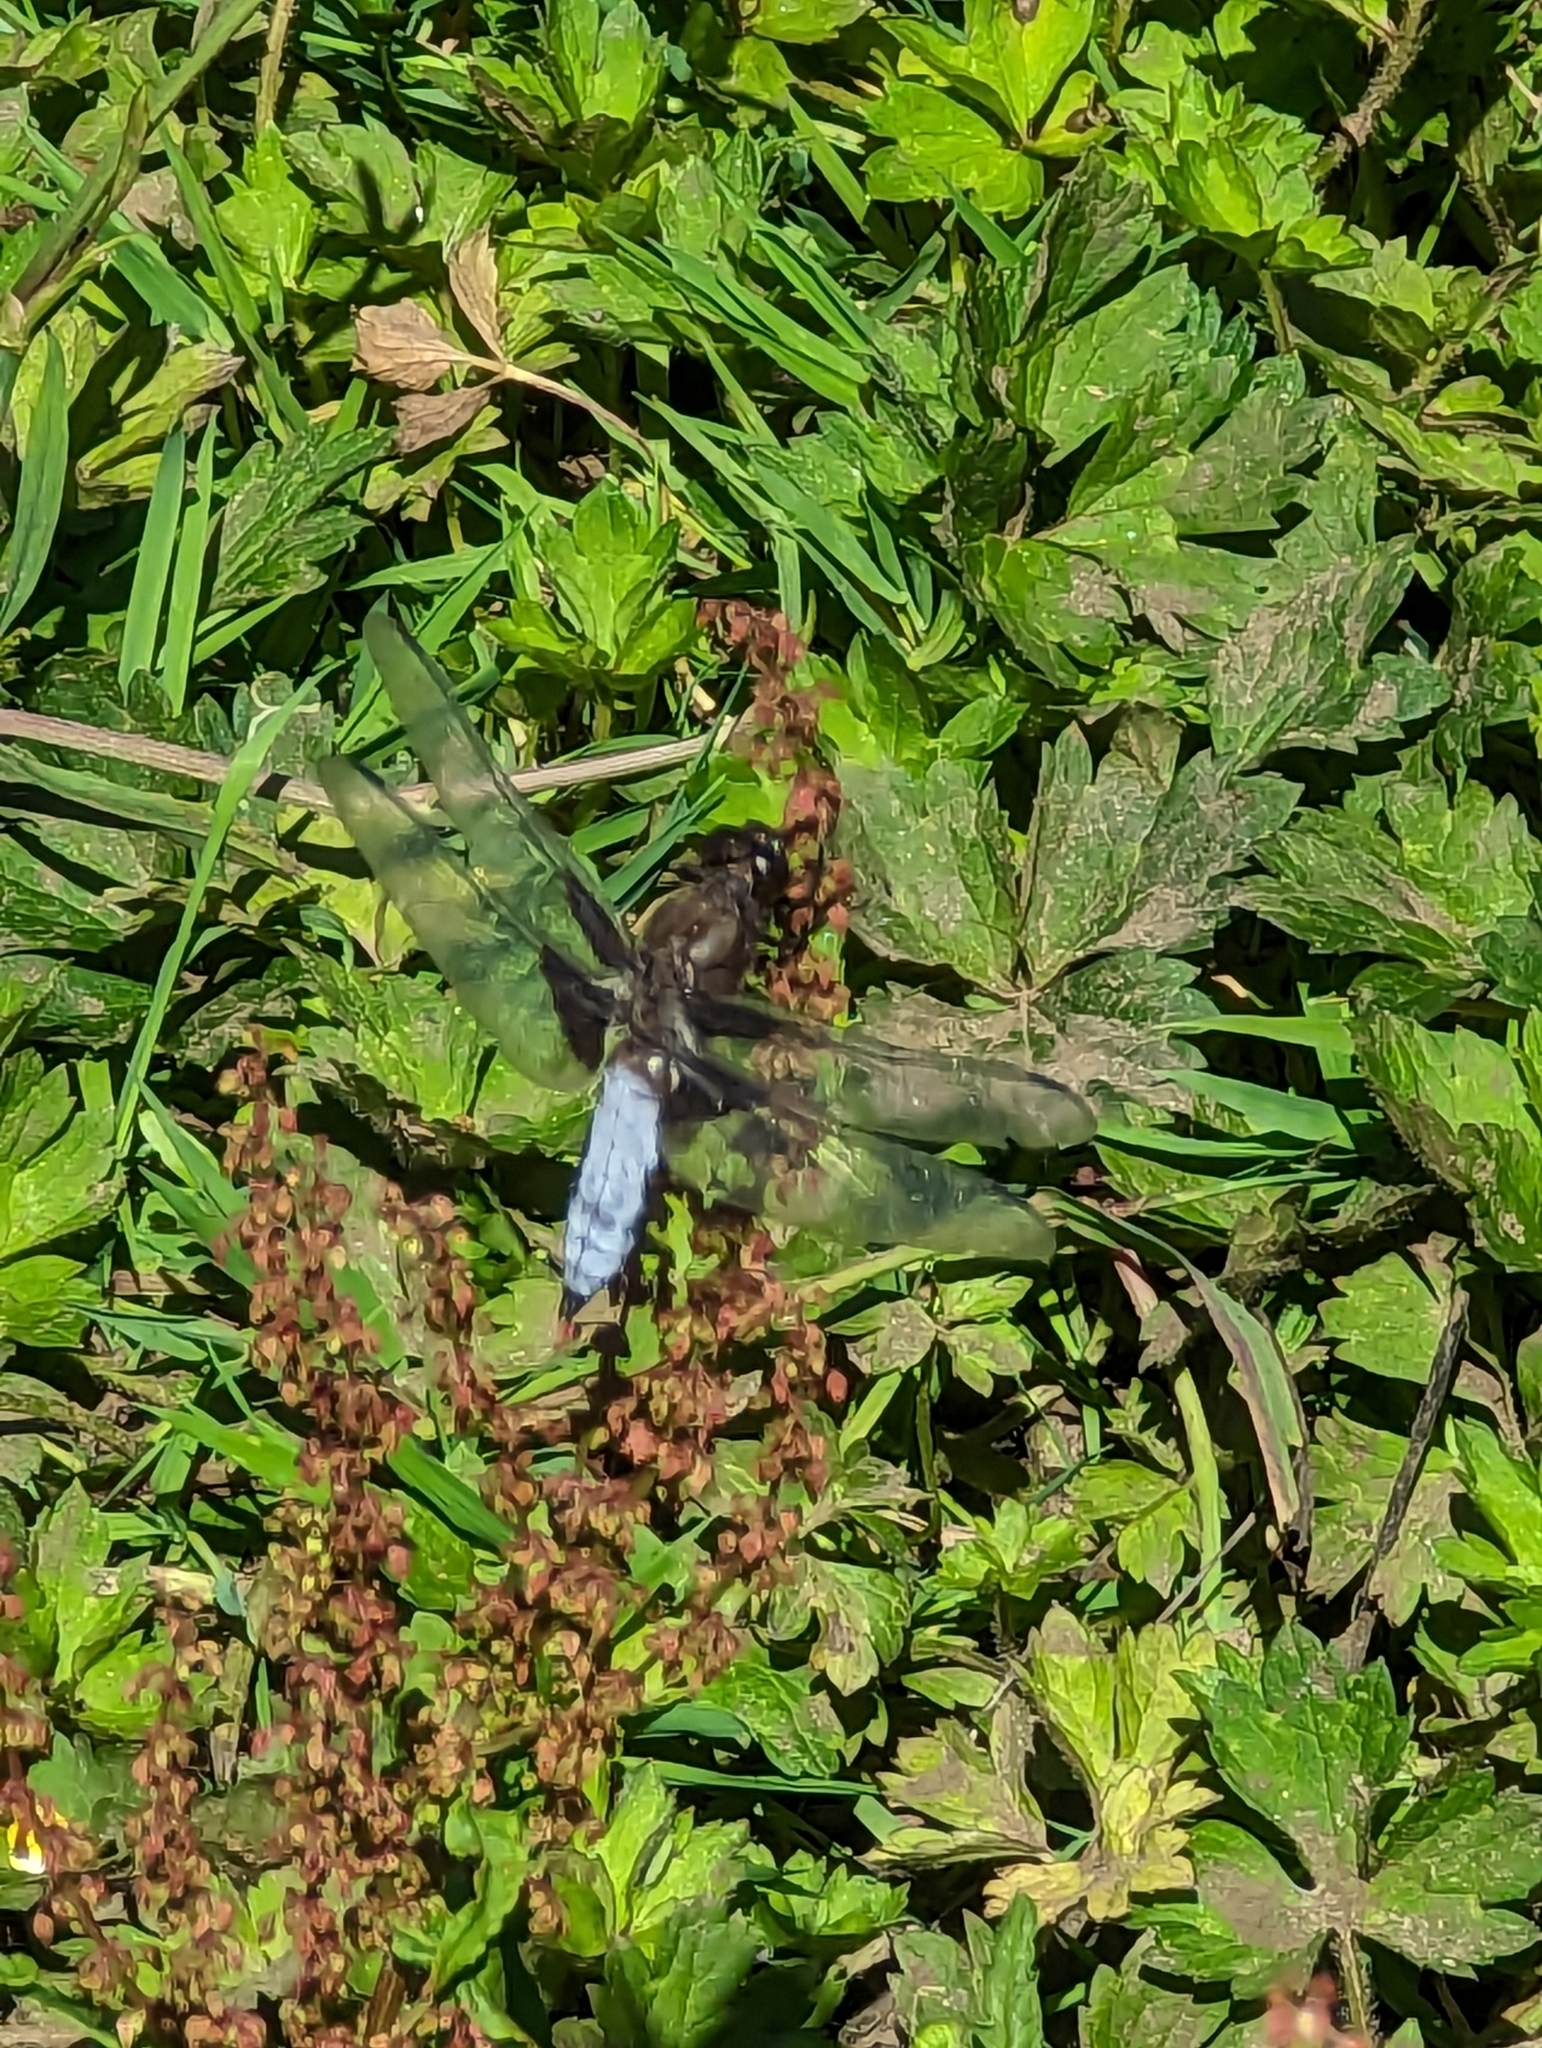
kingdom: Animalia
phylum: Arthropoda
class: Insecta
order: Odonata
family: Libellulidae
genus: Libellula
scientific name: Libellula depressa
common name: Broad-bodied chaser
